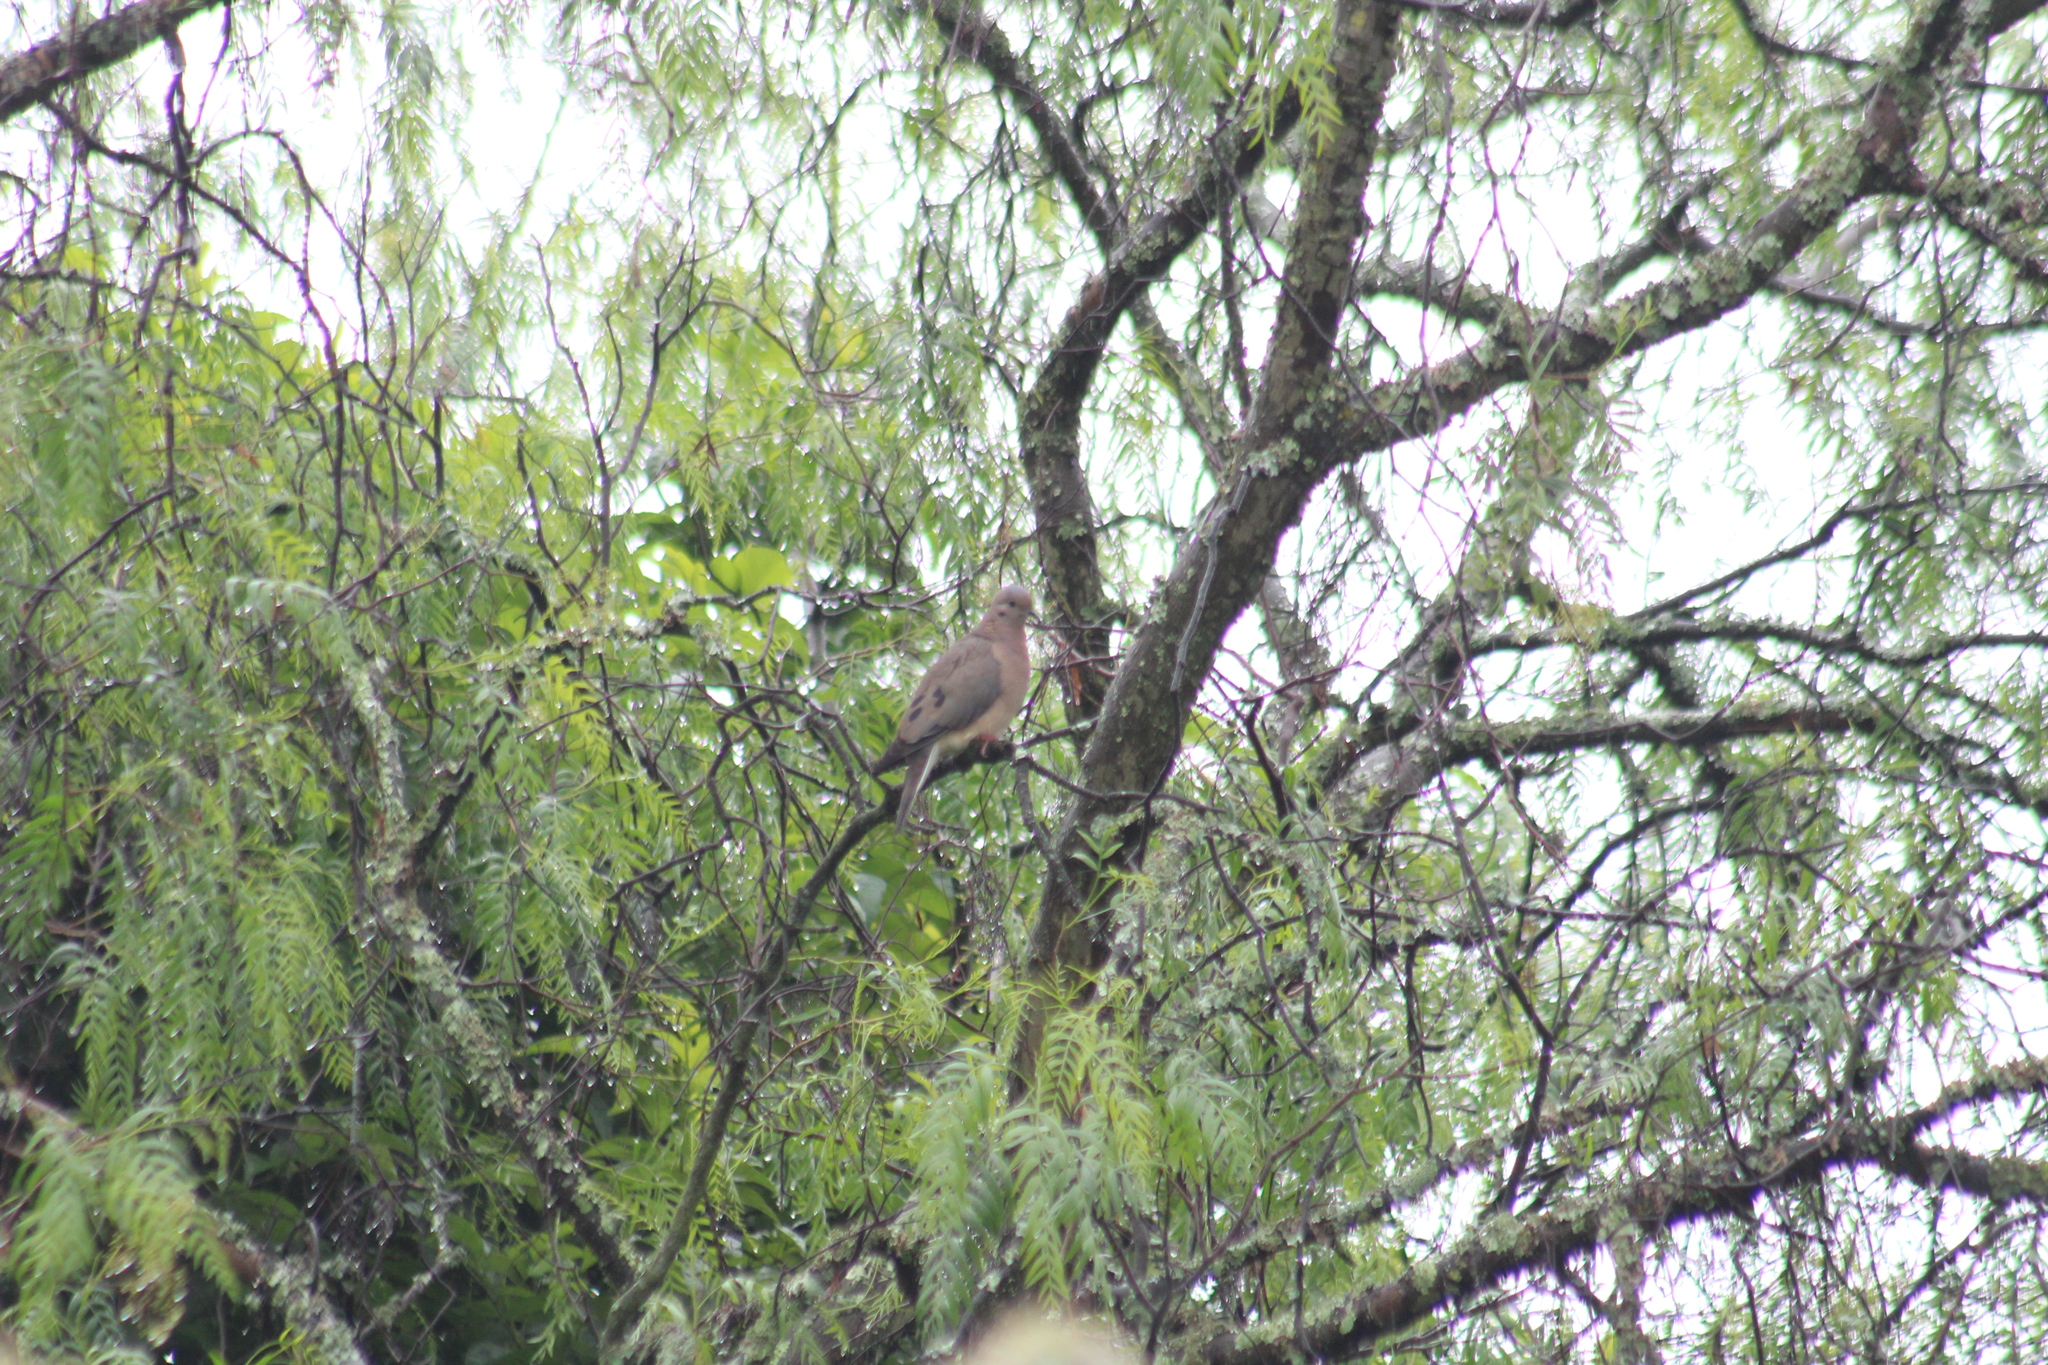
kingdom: Animalia
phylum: Chordata
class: Aves
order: Columbiformes
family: Columbidae
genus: Zenaida
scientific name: Zenaida auriculata
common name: Eared dove
